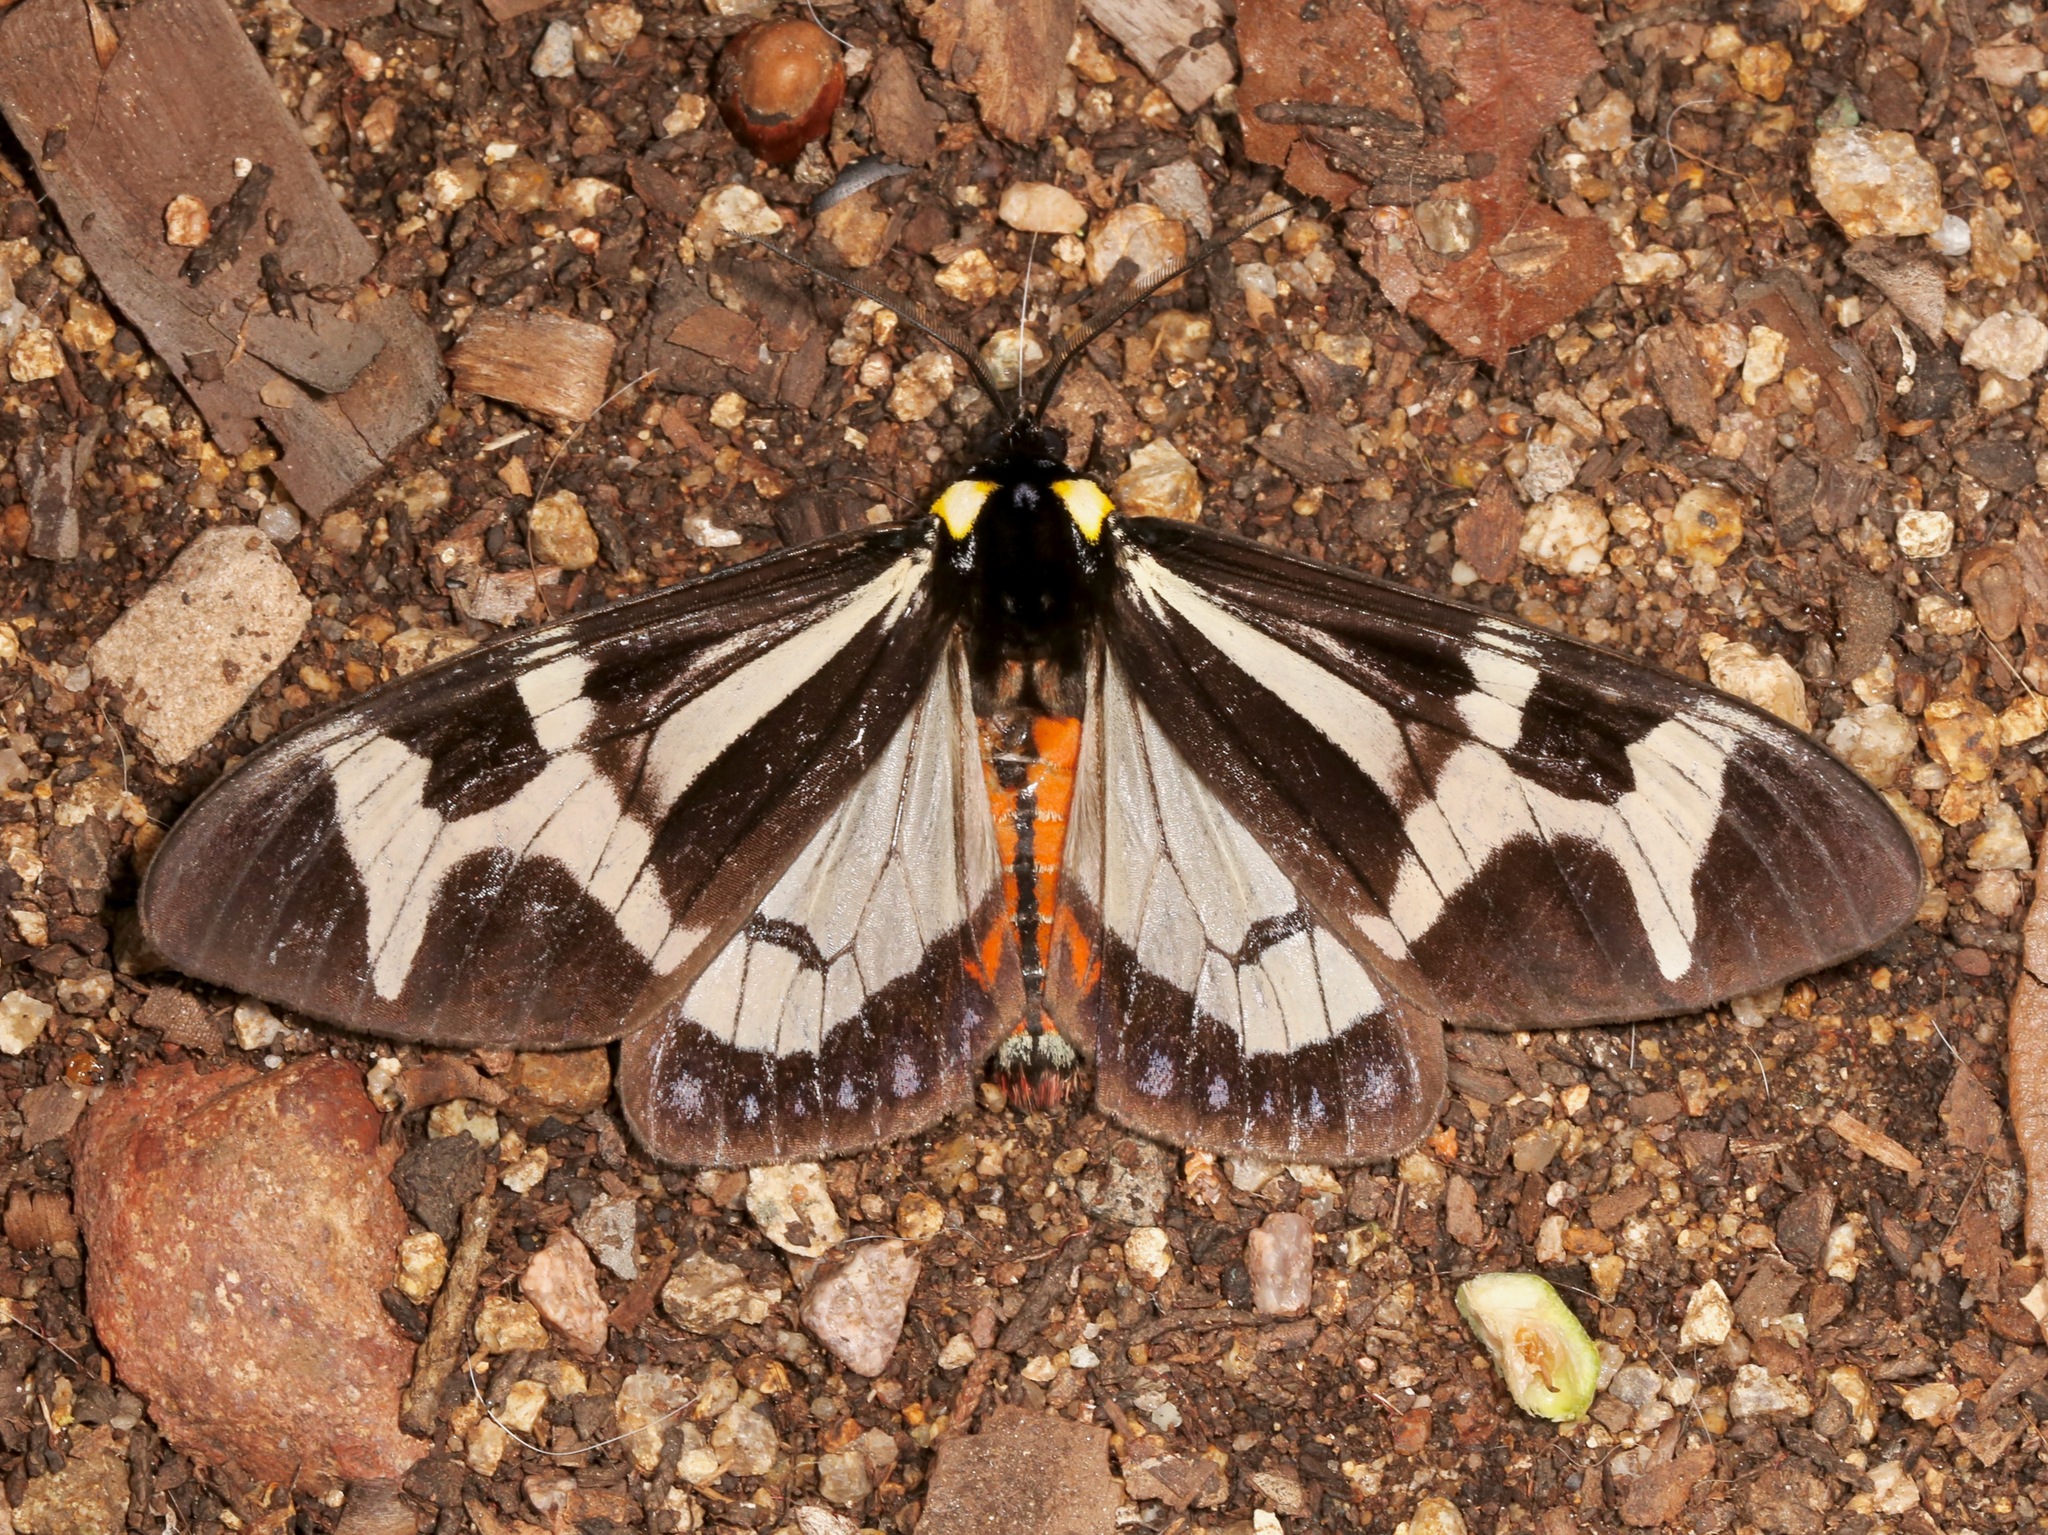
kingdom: Animalia
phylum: Arthropoda
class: Insecta
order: Lepidoptera
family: Erebidae
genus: Dysschema
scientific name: Dysschema howardi
